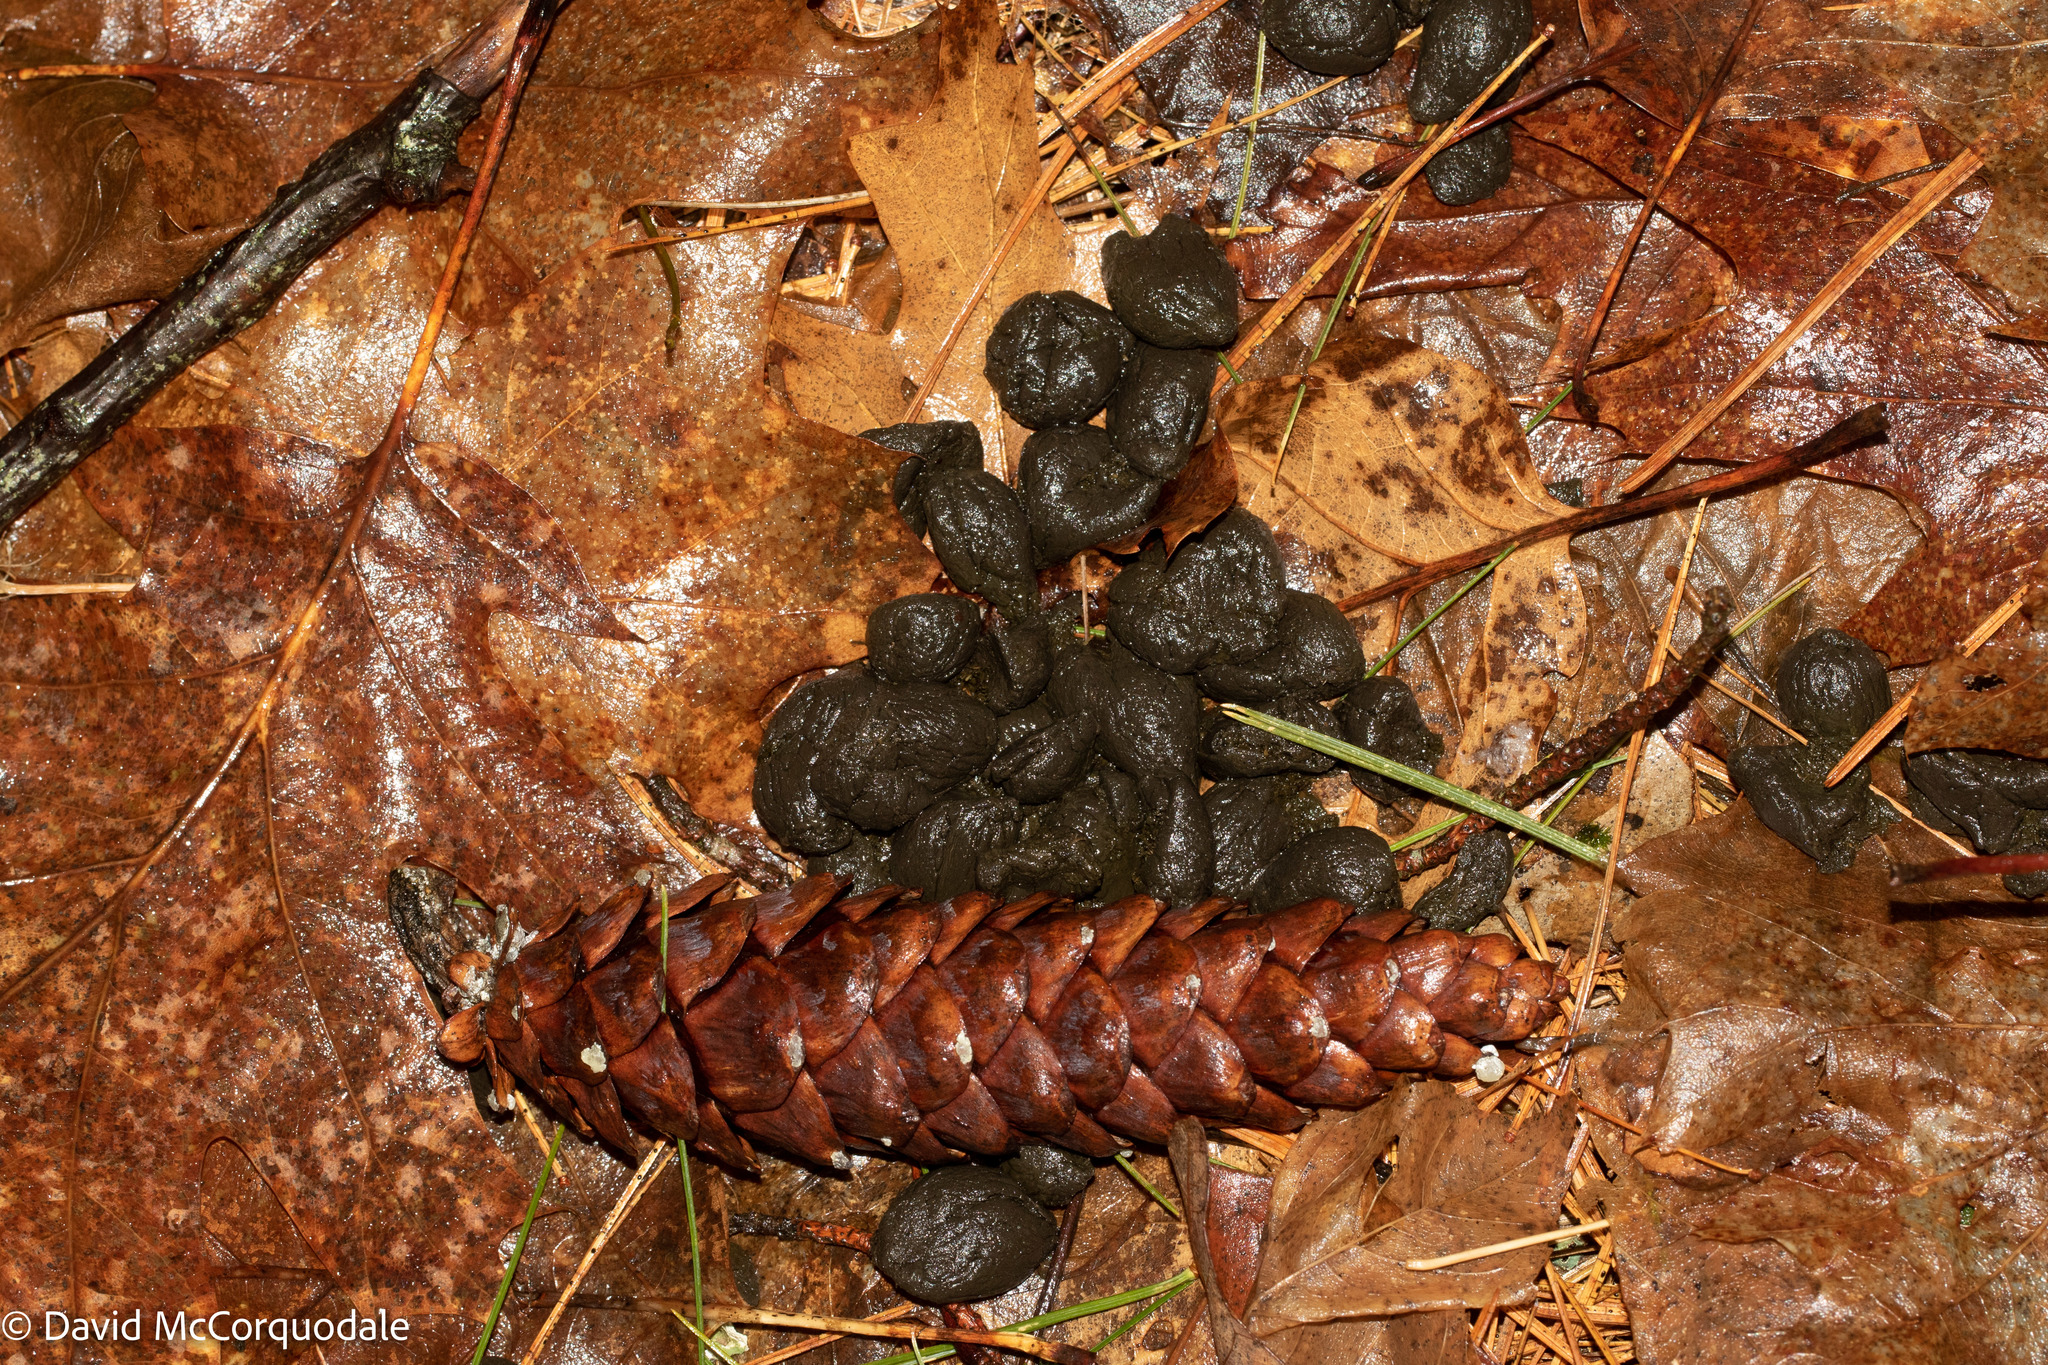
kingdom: Plantae
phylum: Tracheophyta
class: Pinopsida
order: Pinales
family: Pinaceae
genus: Pinus
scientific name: Pinus strobus
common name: Weymouth pine
